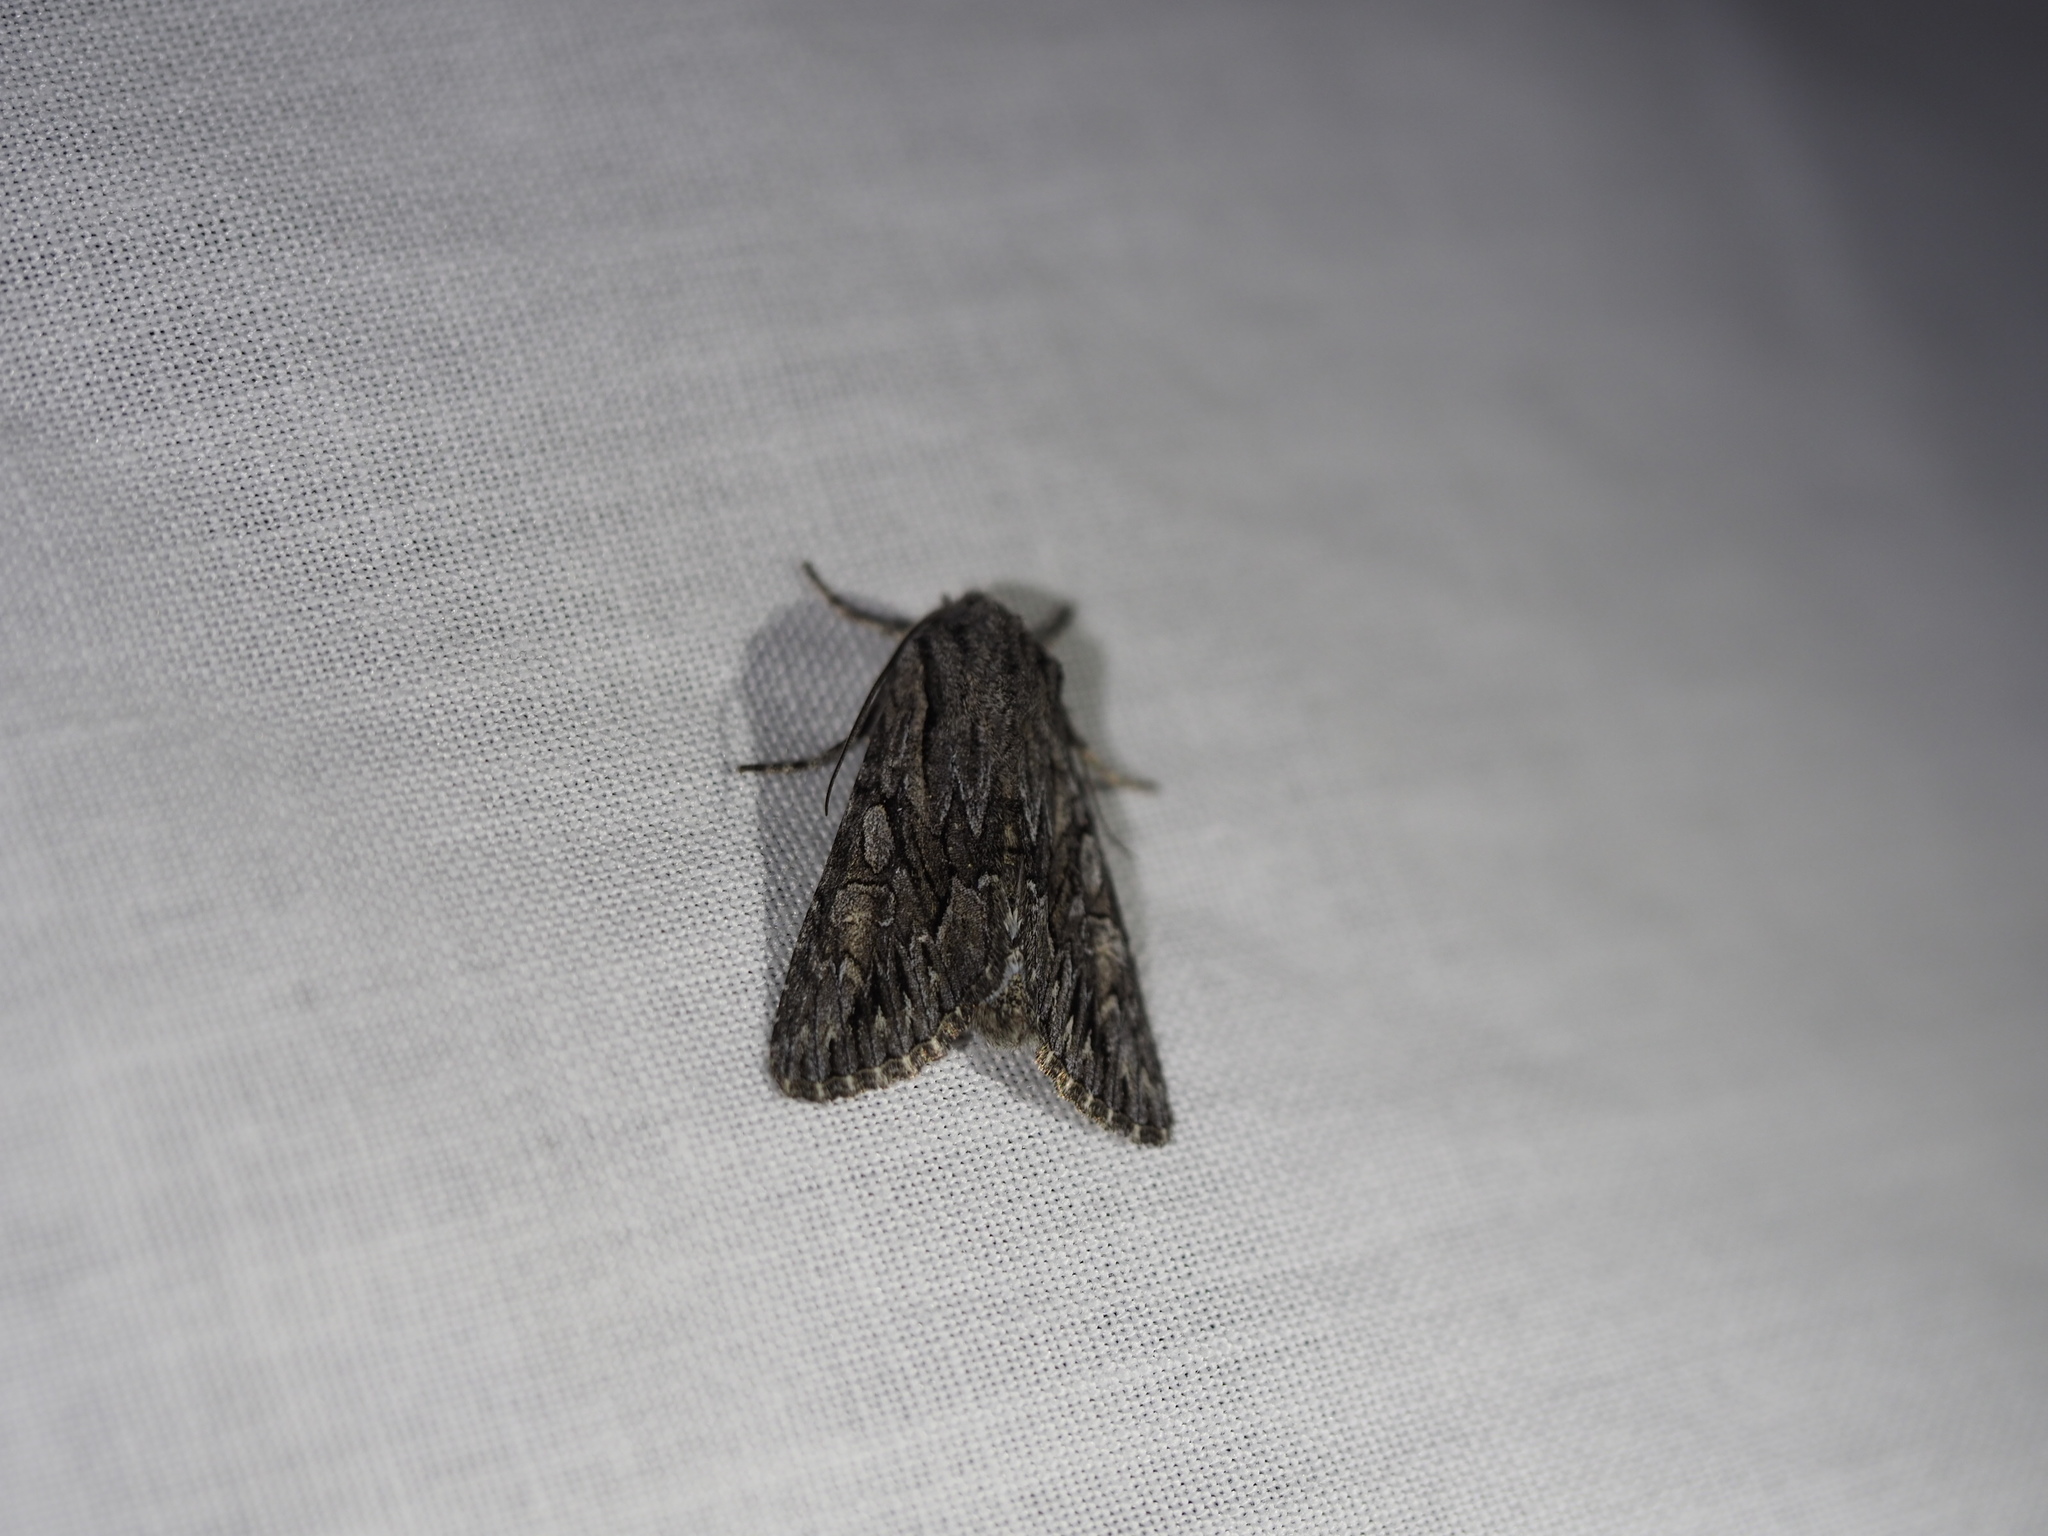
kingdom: Animalia
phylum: Arthropoda
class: Insecta
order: Lepidoptera
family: Noctuidae
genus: Fishia
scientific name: Fishia yosemitae
